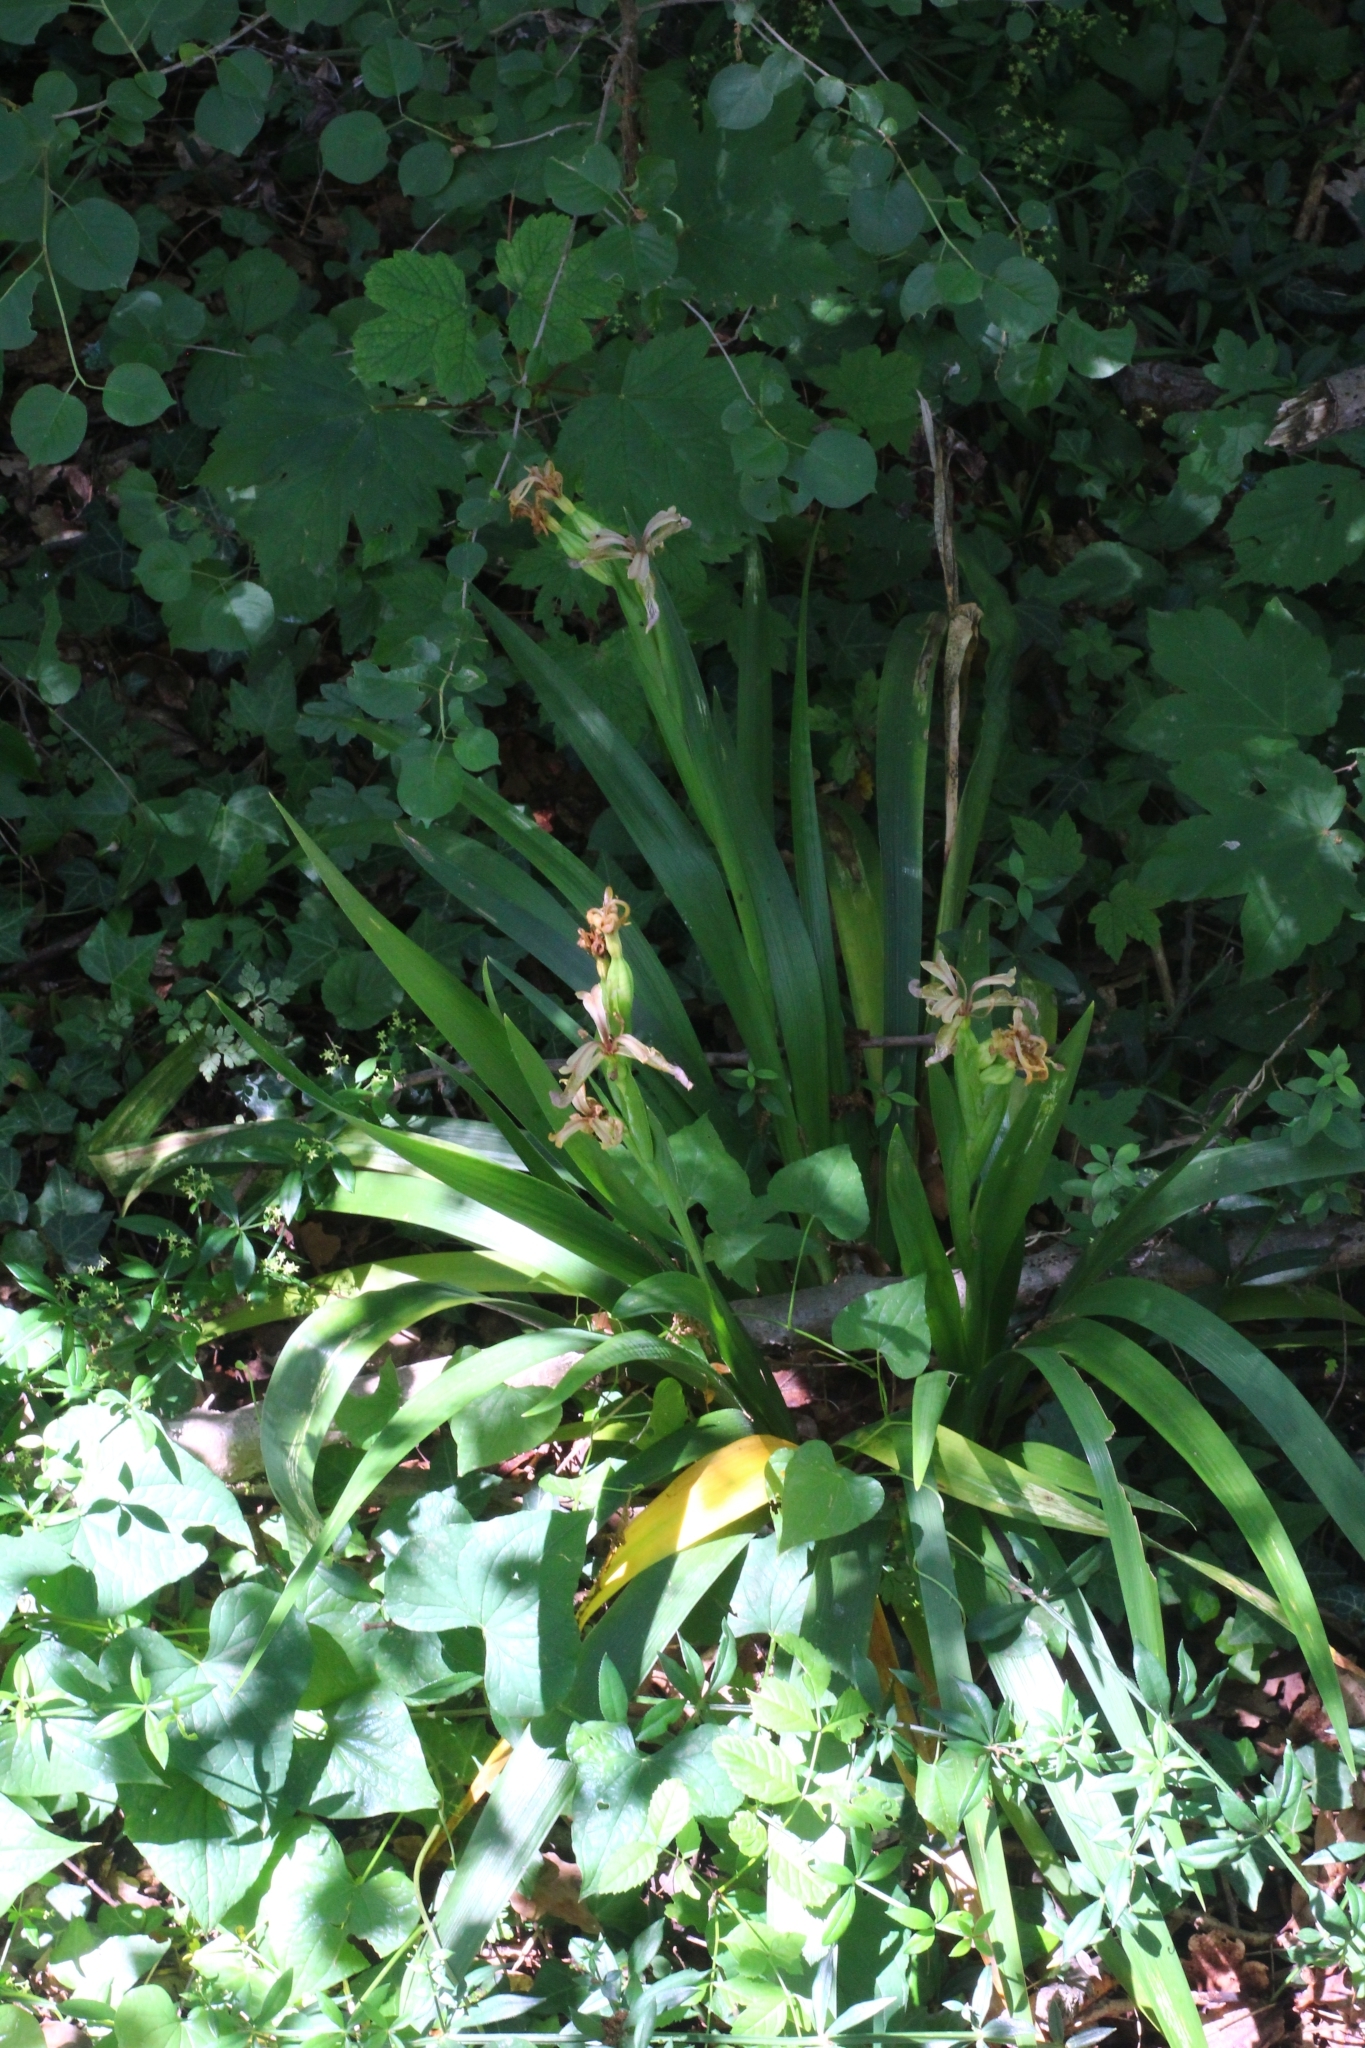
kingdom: Plantae
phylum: Tracheophyta
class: Liliopsida
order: Asparagales
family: Iridaceae
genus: Iris
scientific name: Iris foetidissima
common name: Stinking iris
